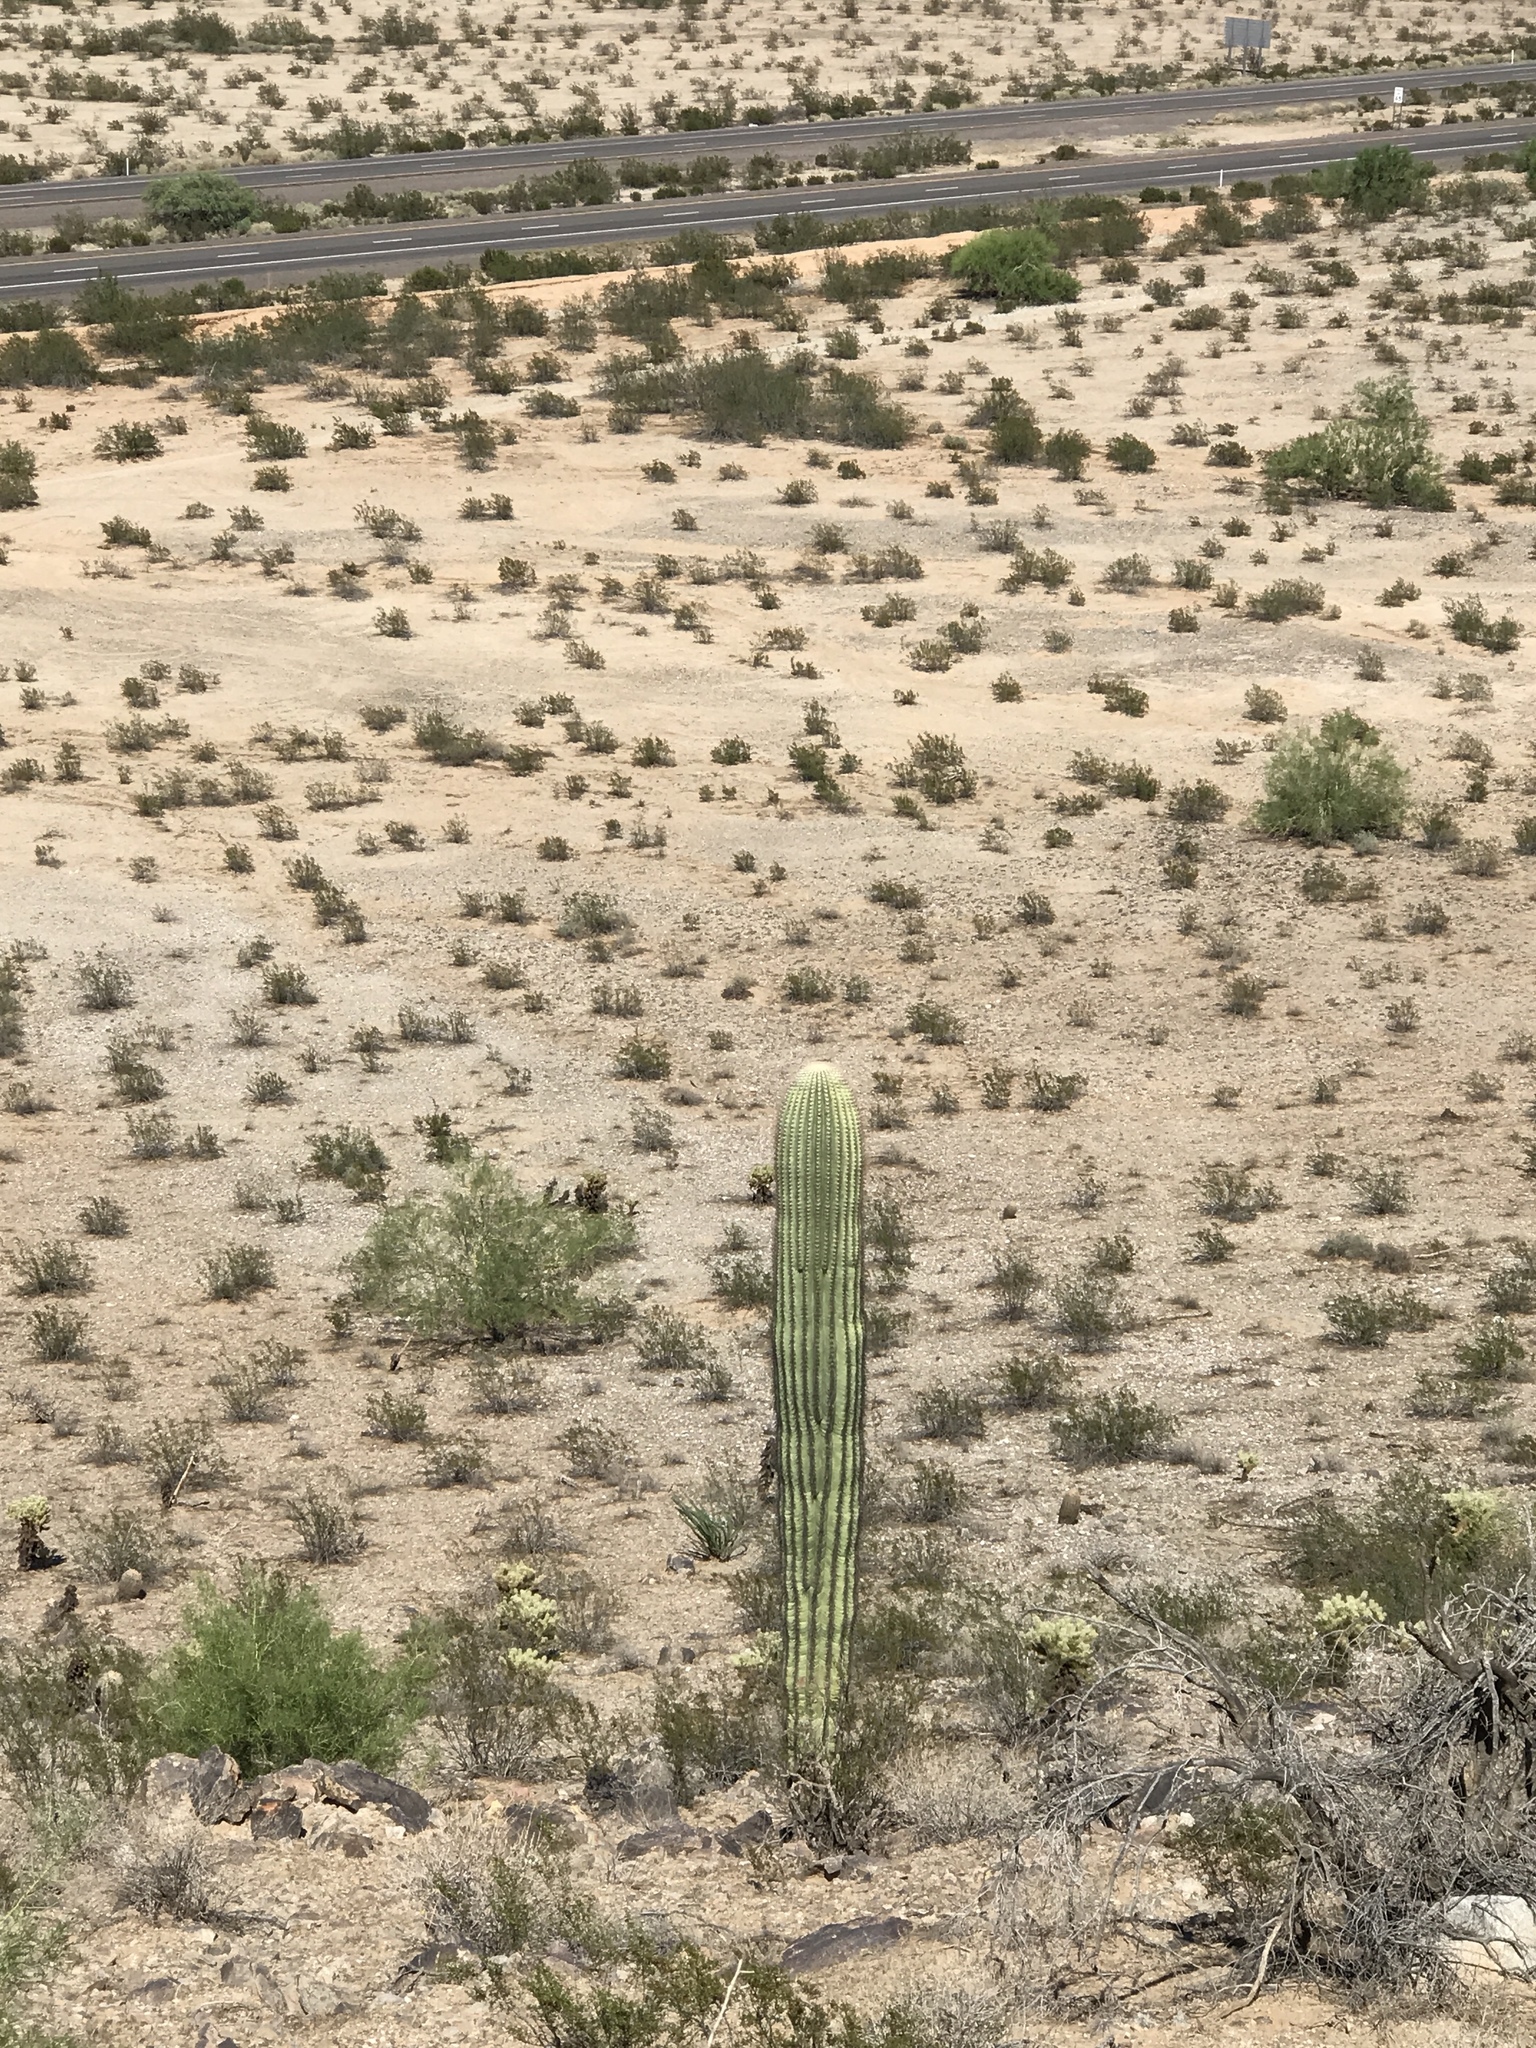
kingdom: Plantae
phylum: Tracheophyta
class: Magnoliopsida
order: Caryophyllales
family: Cactaceae
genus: Carnegiea
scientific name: Carnegiea gigantea
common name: Saguaro
